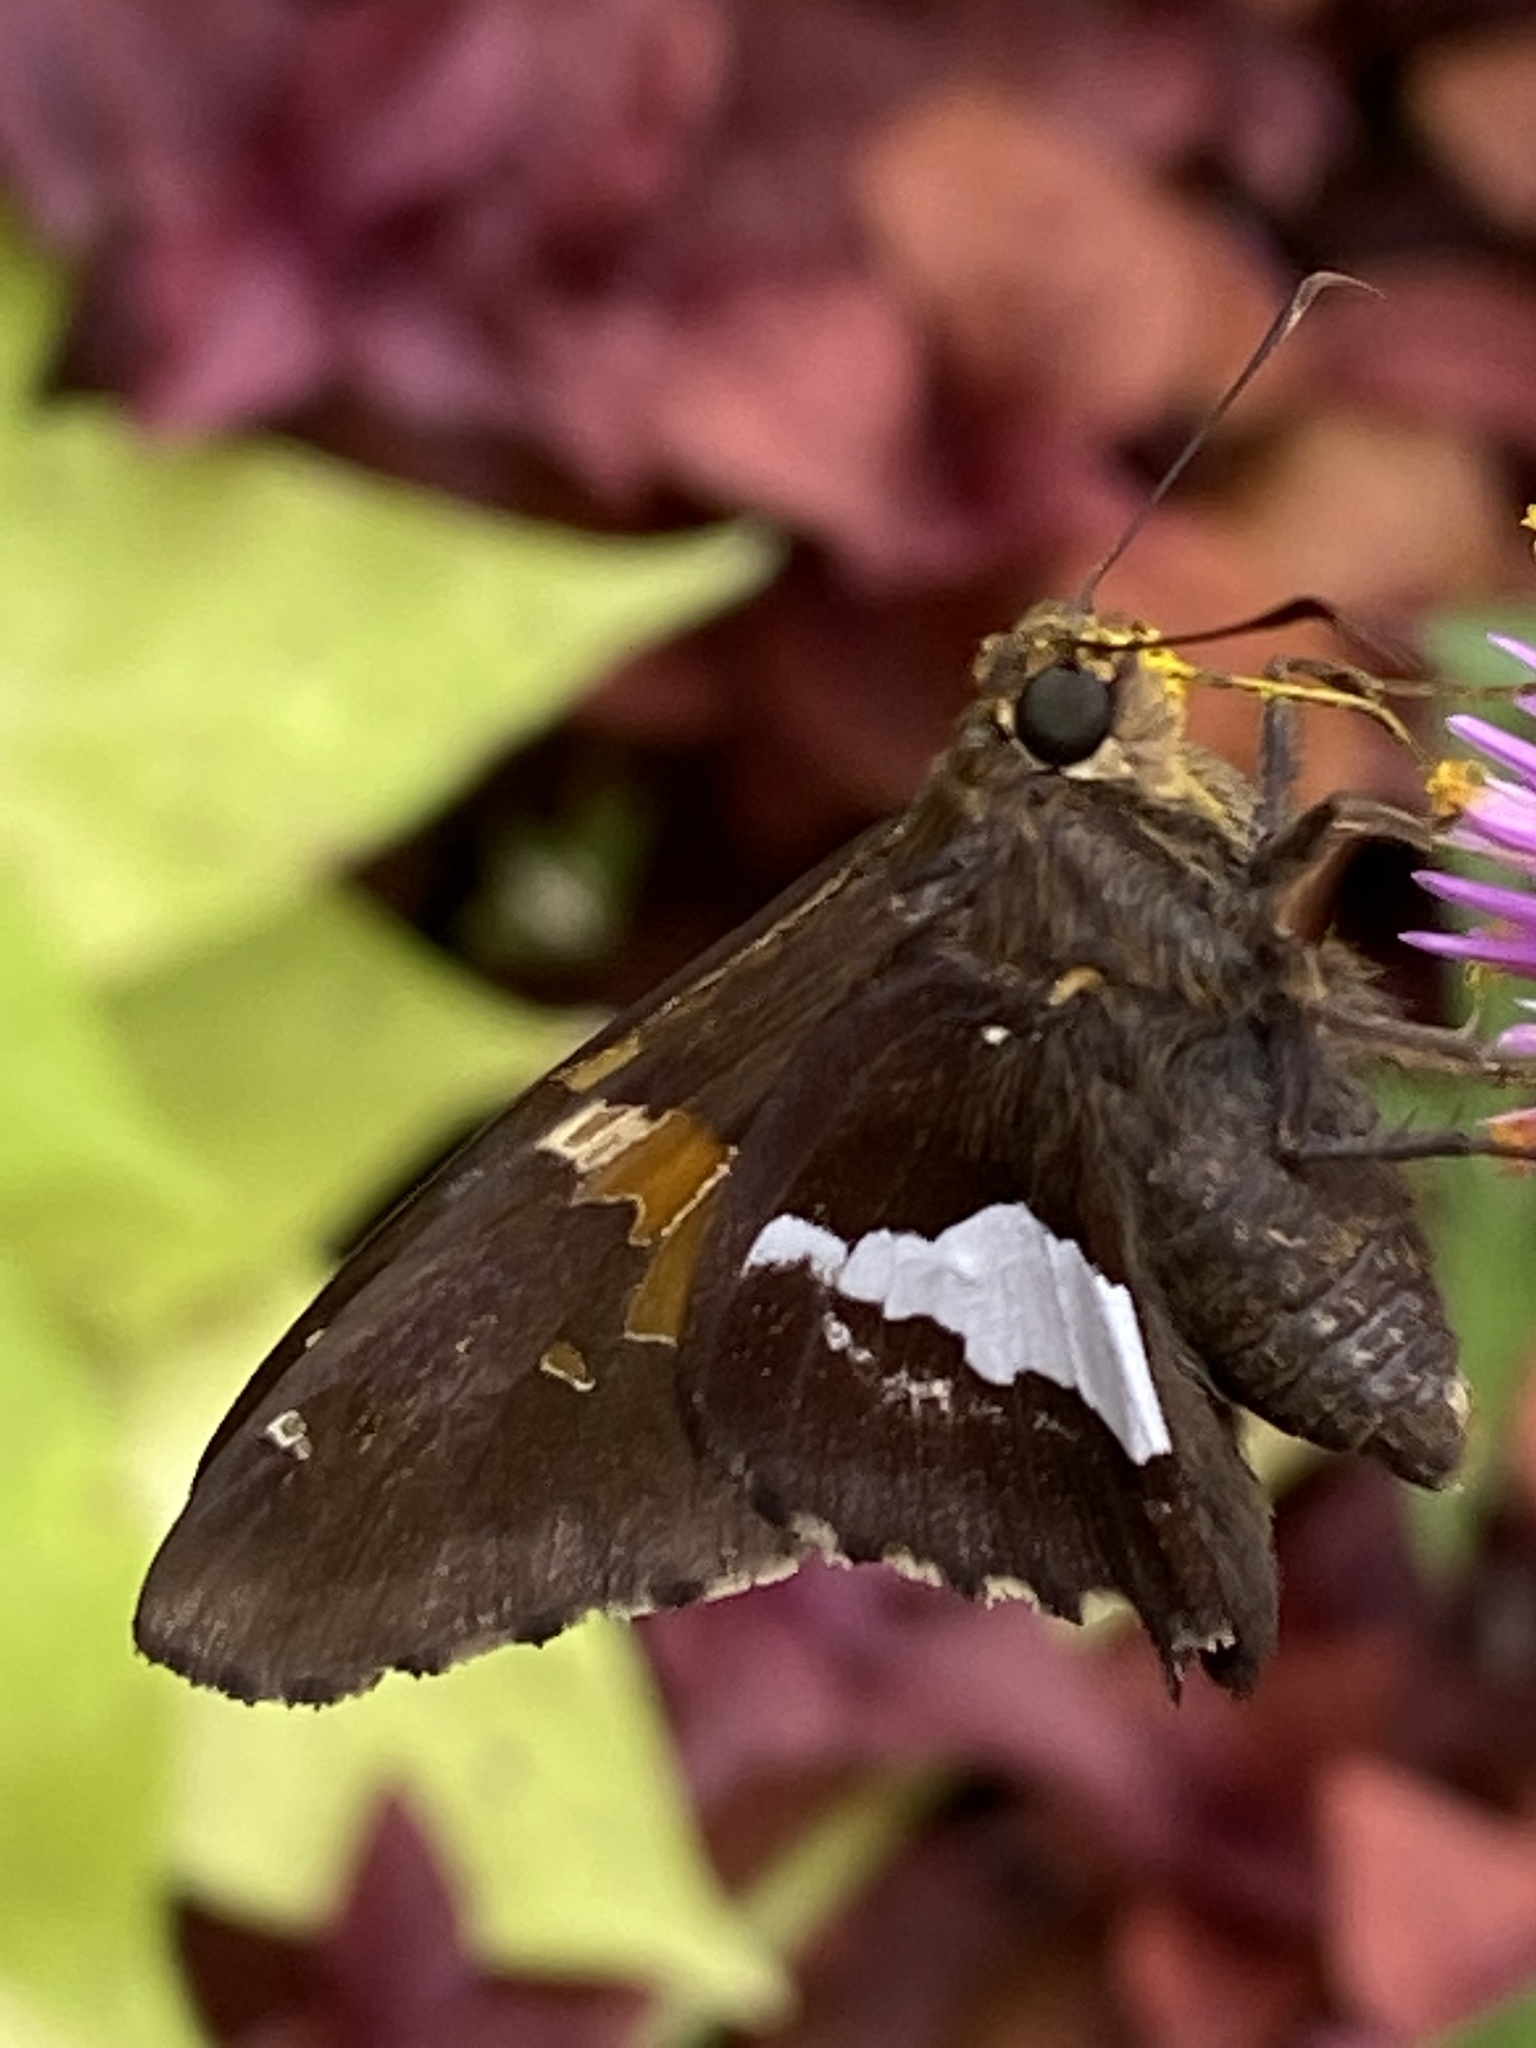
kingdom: Animalia
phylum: Arthropoda
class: Insecta
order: Lepidoptera
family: Hesperiidae
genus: Epargyreus
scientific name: Epargyreus clarus
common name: Silver-spotted skipper
